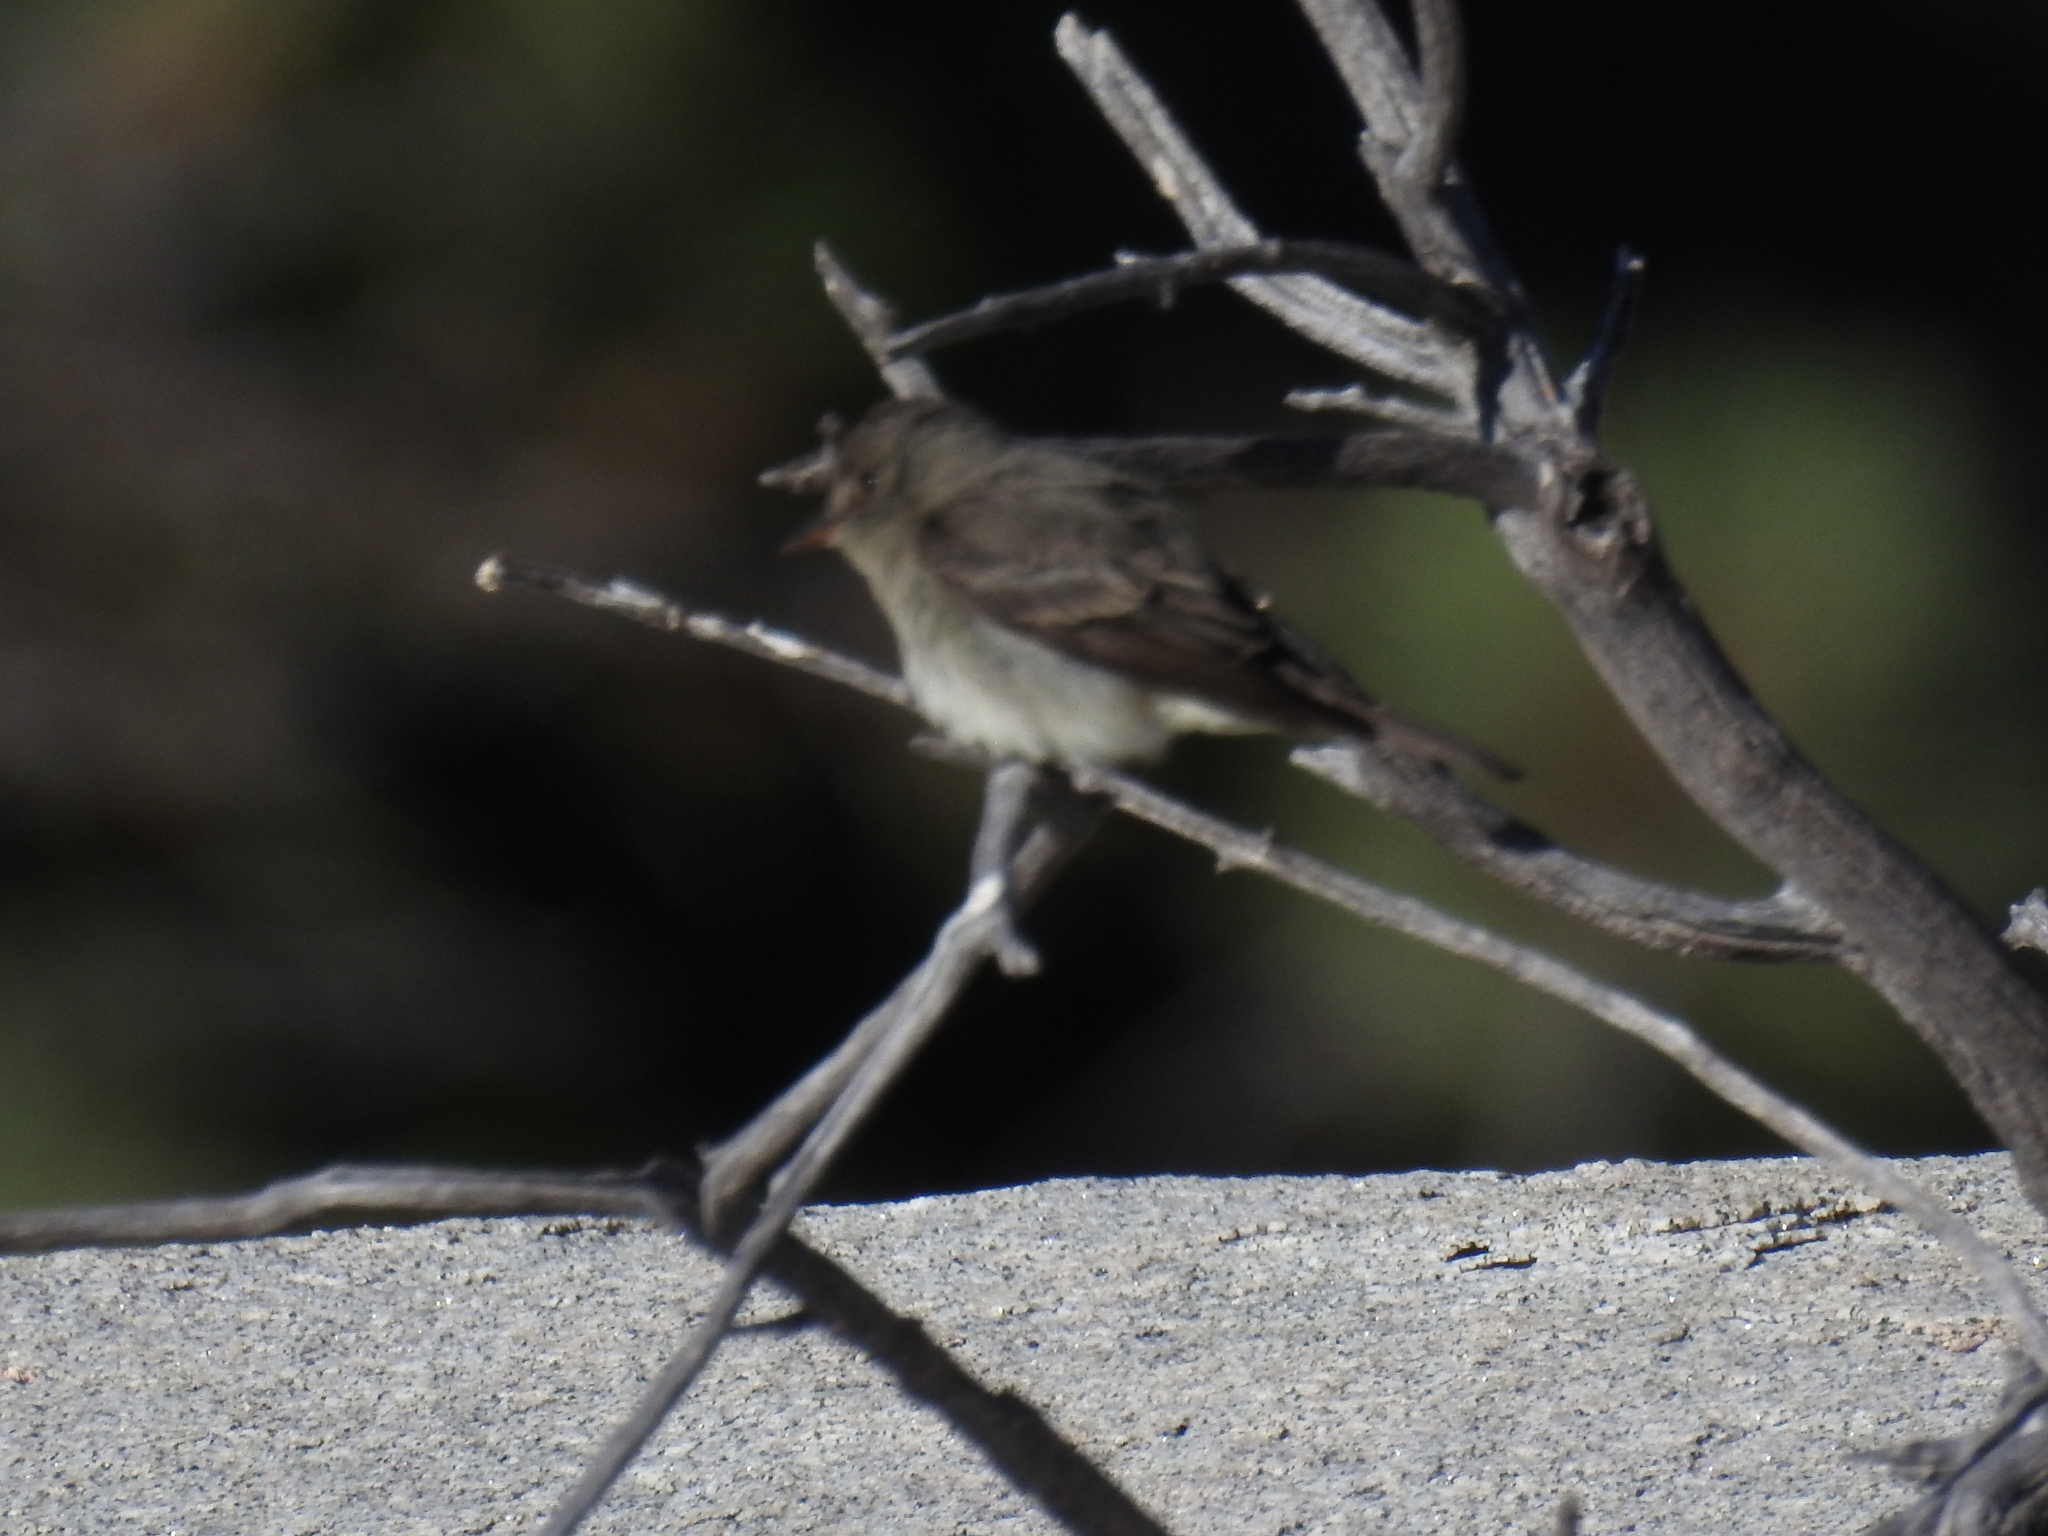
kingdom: Animalia
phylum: Chordata
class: Aves
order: Passeriformes
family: Tyrannidae
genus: Contopus
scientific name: Contopus sordidulus
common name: Western wood-pewee
